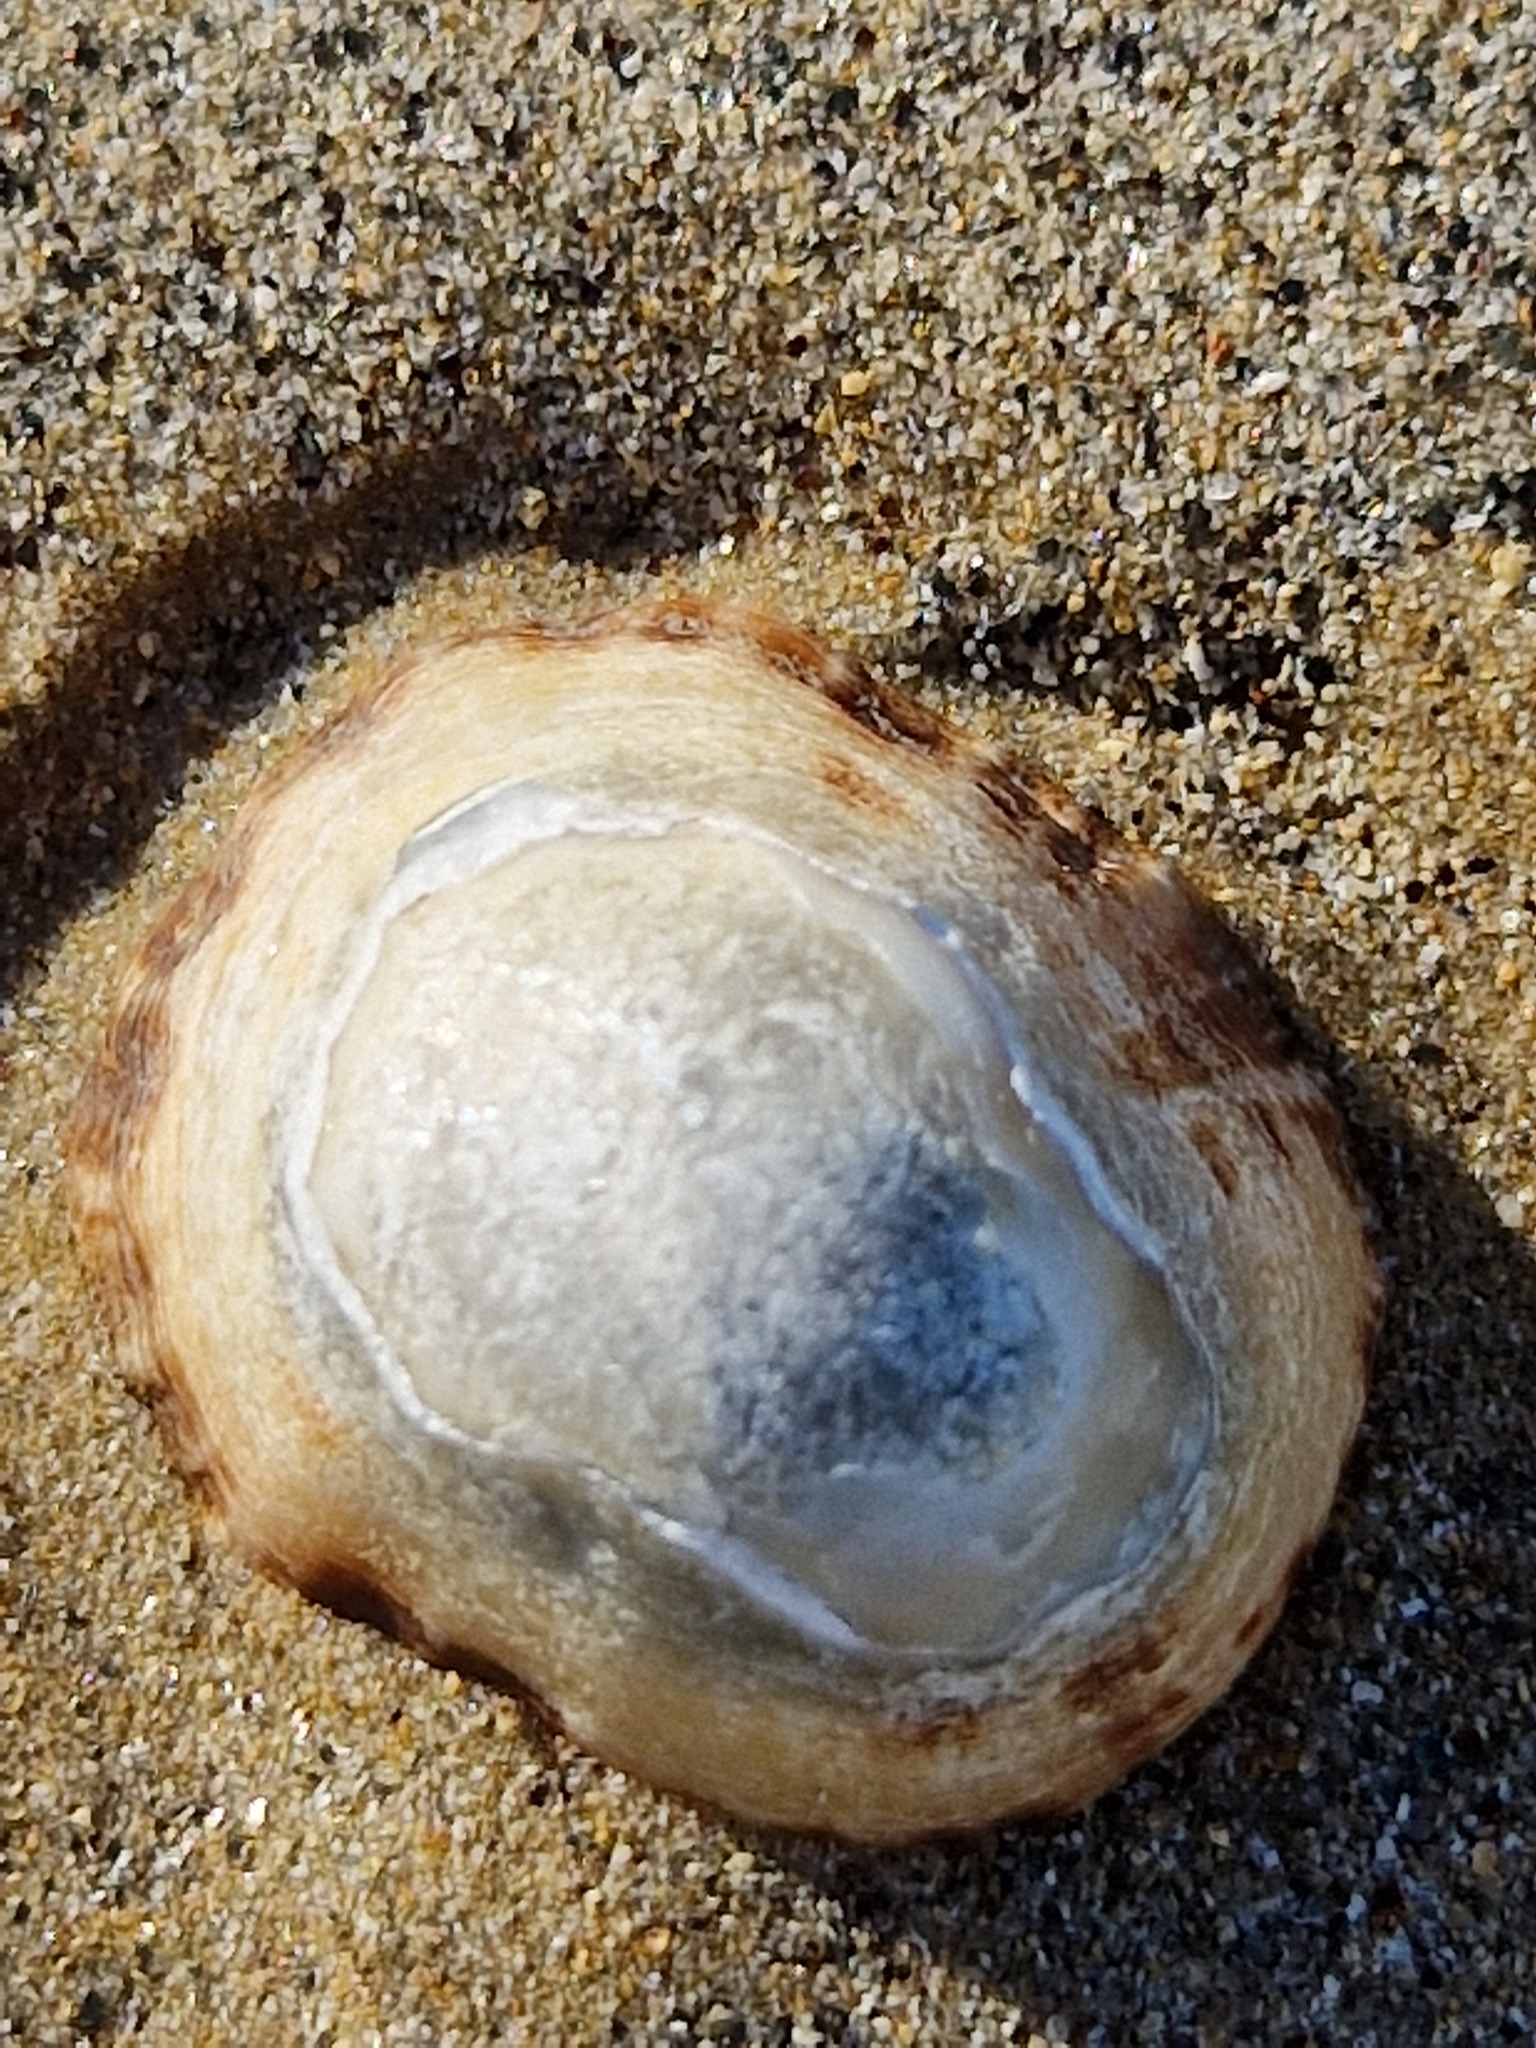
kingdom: Animalia
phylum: Mollusca
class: Gastropoda
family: Patellidae
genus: Patella
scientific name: Patella vulgata
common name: Common limpet
